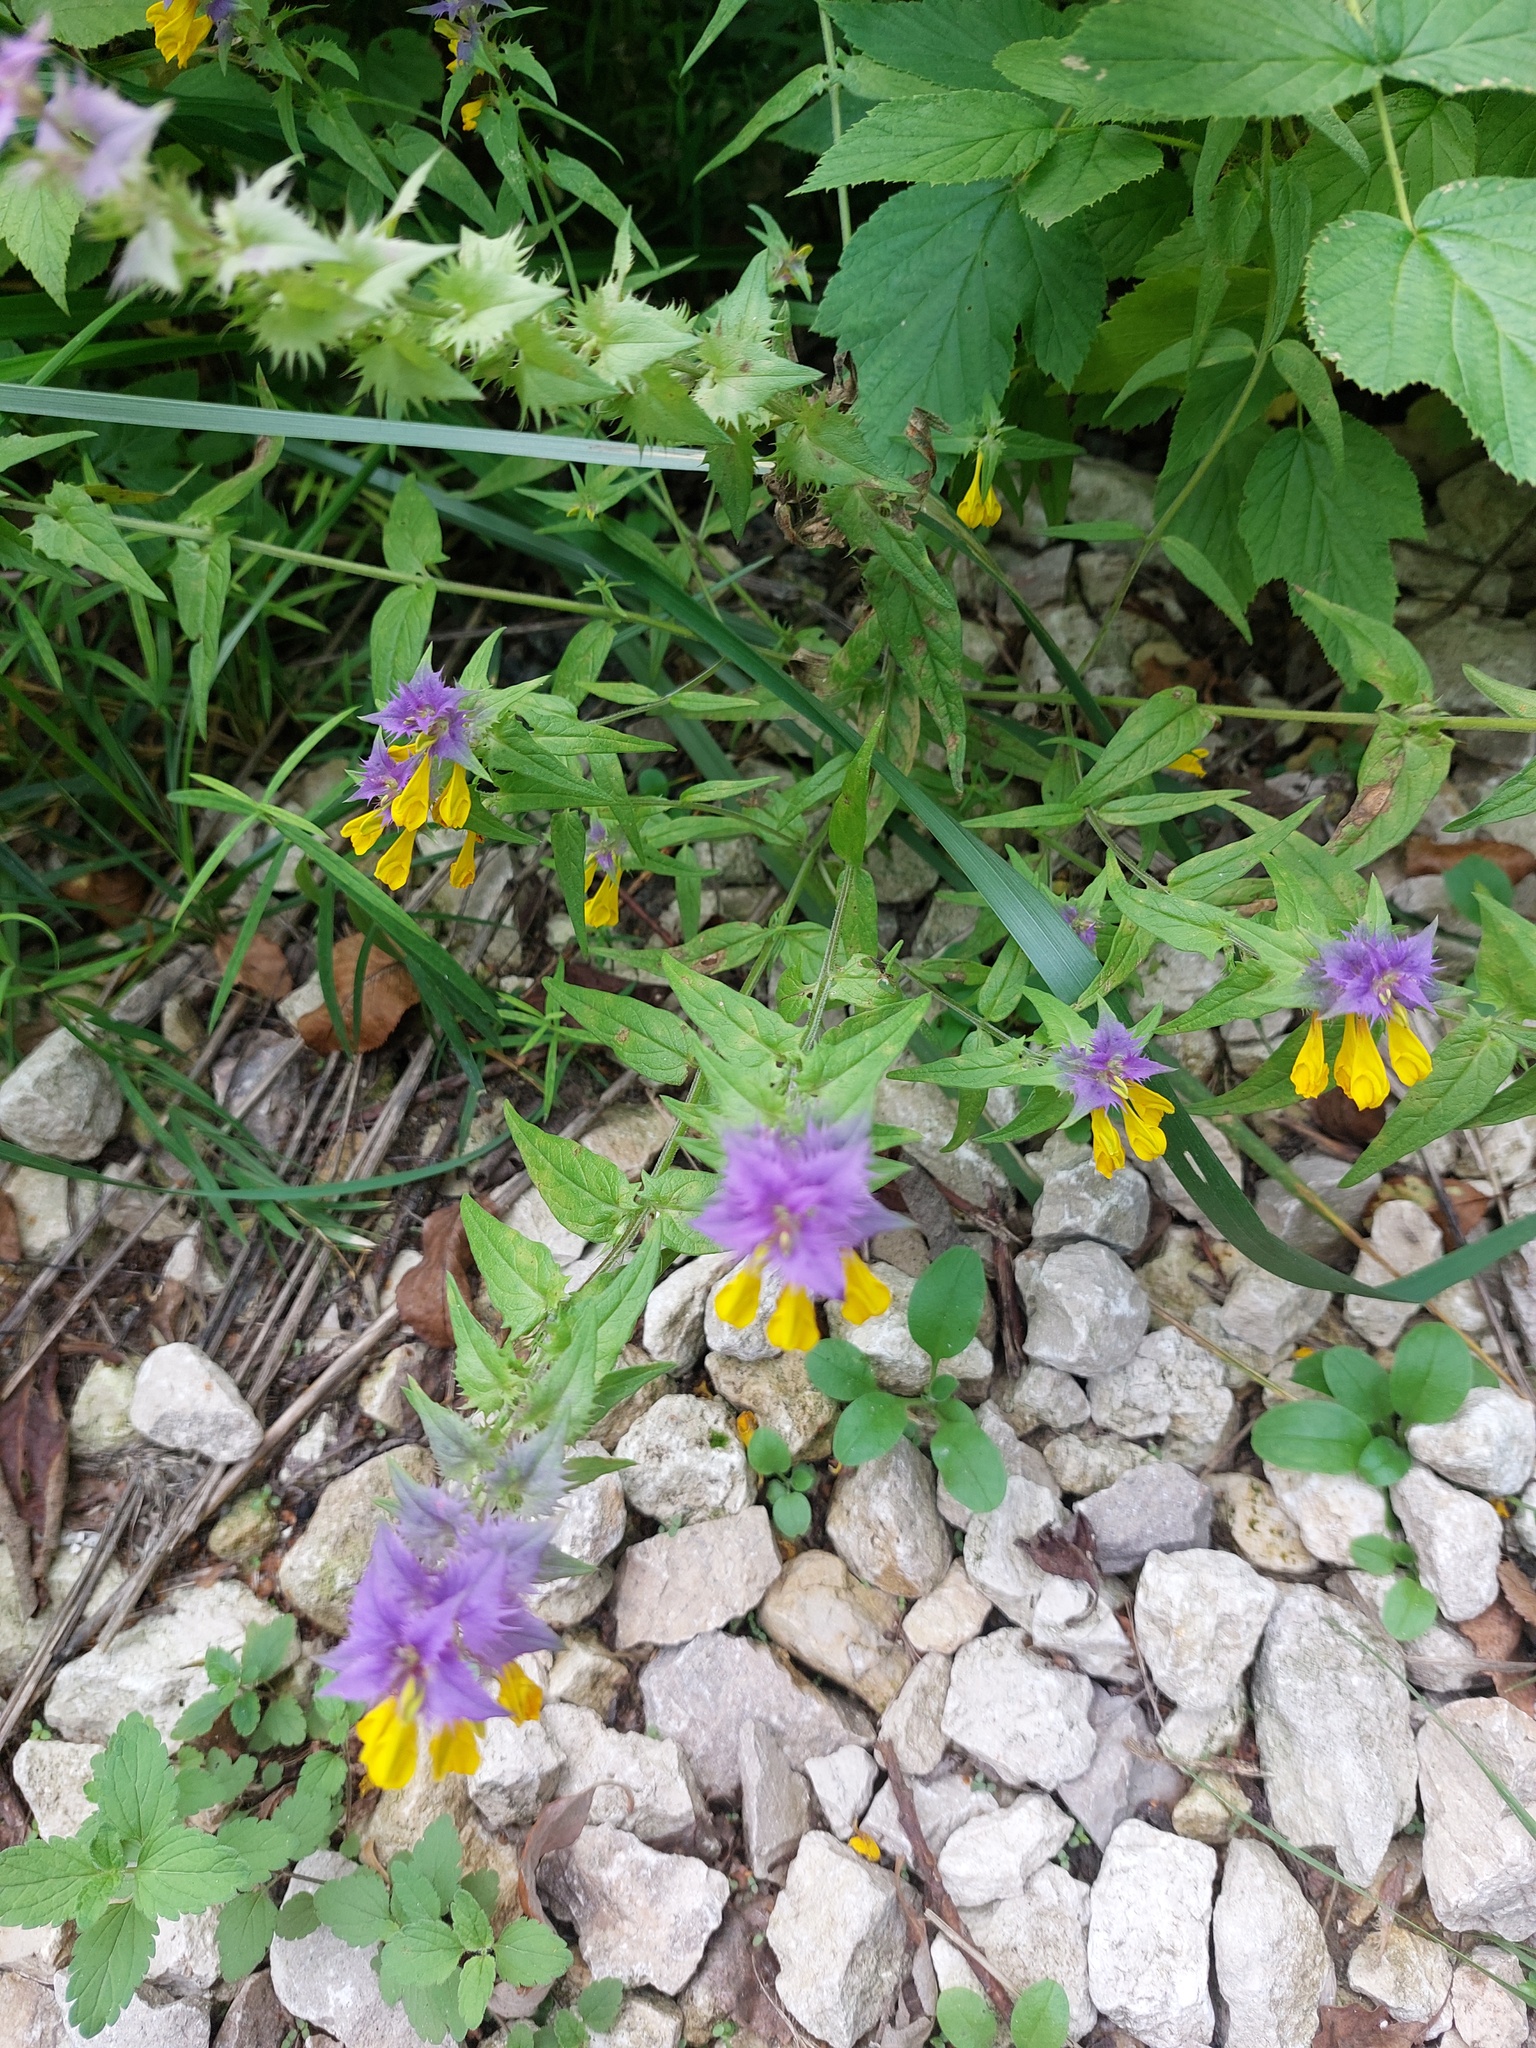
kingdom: Plantae
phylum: Tracheophyta
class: Magnoliopsida
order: Lamiales
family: Orobanchaceae
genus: Melampyrum
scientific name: Melampyrum nemorosum
